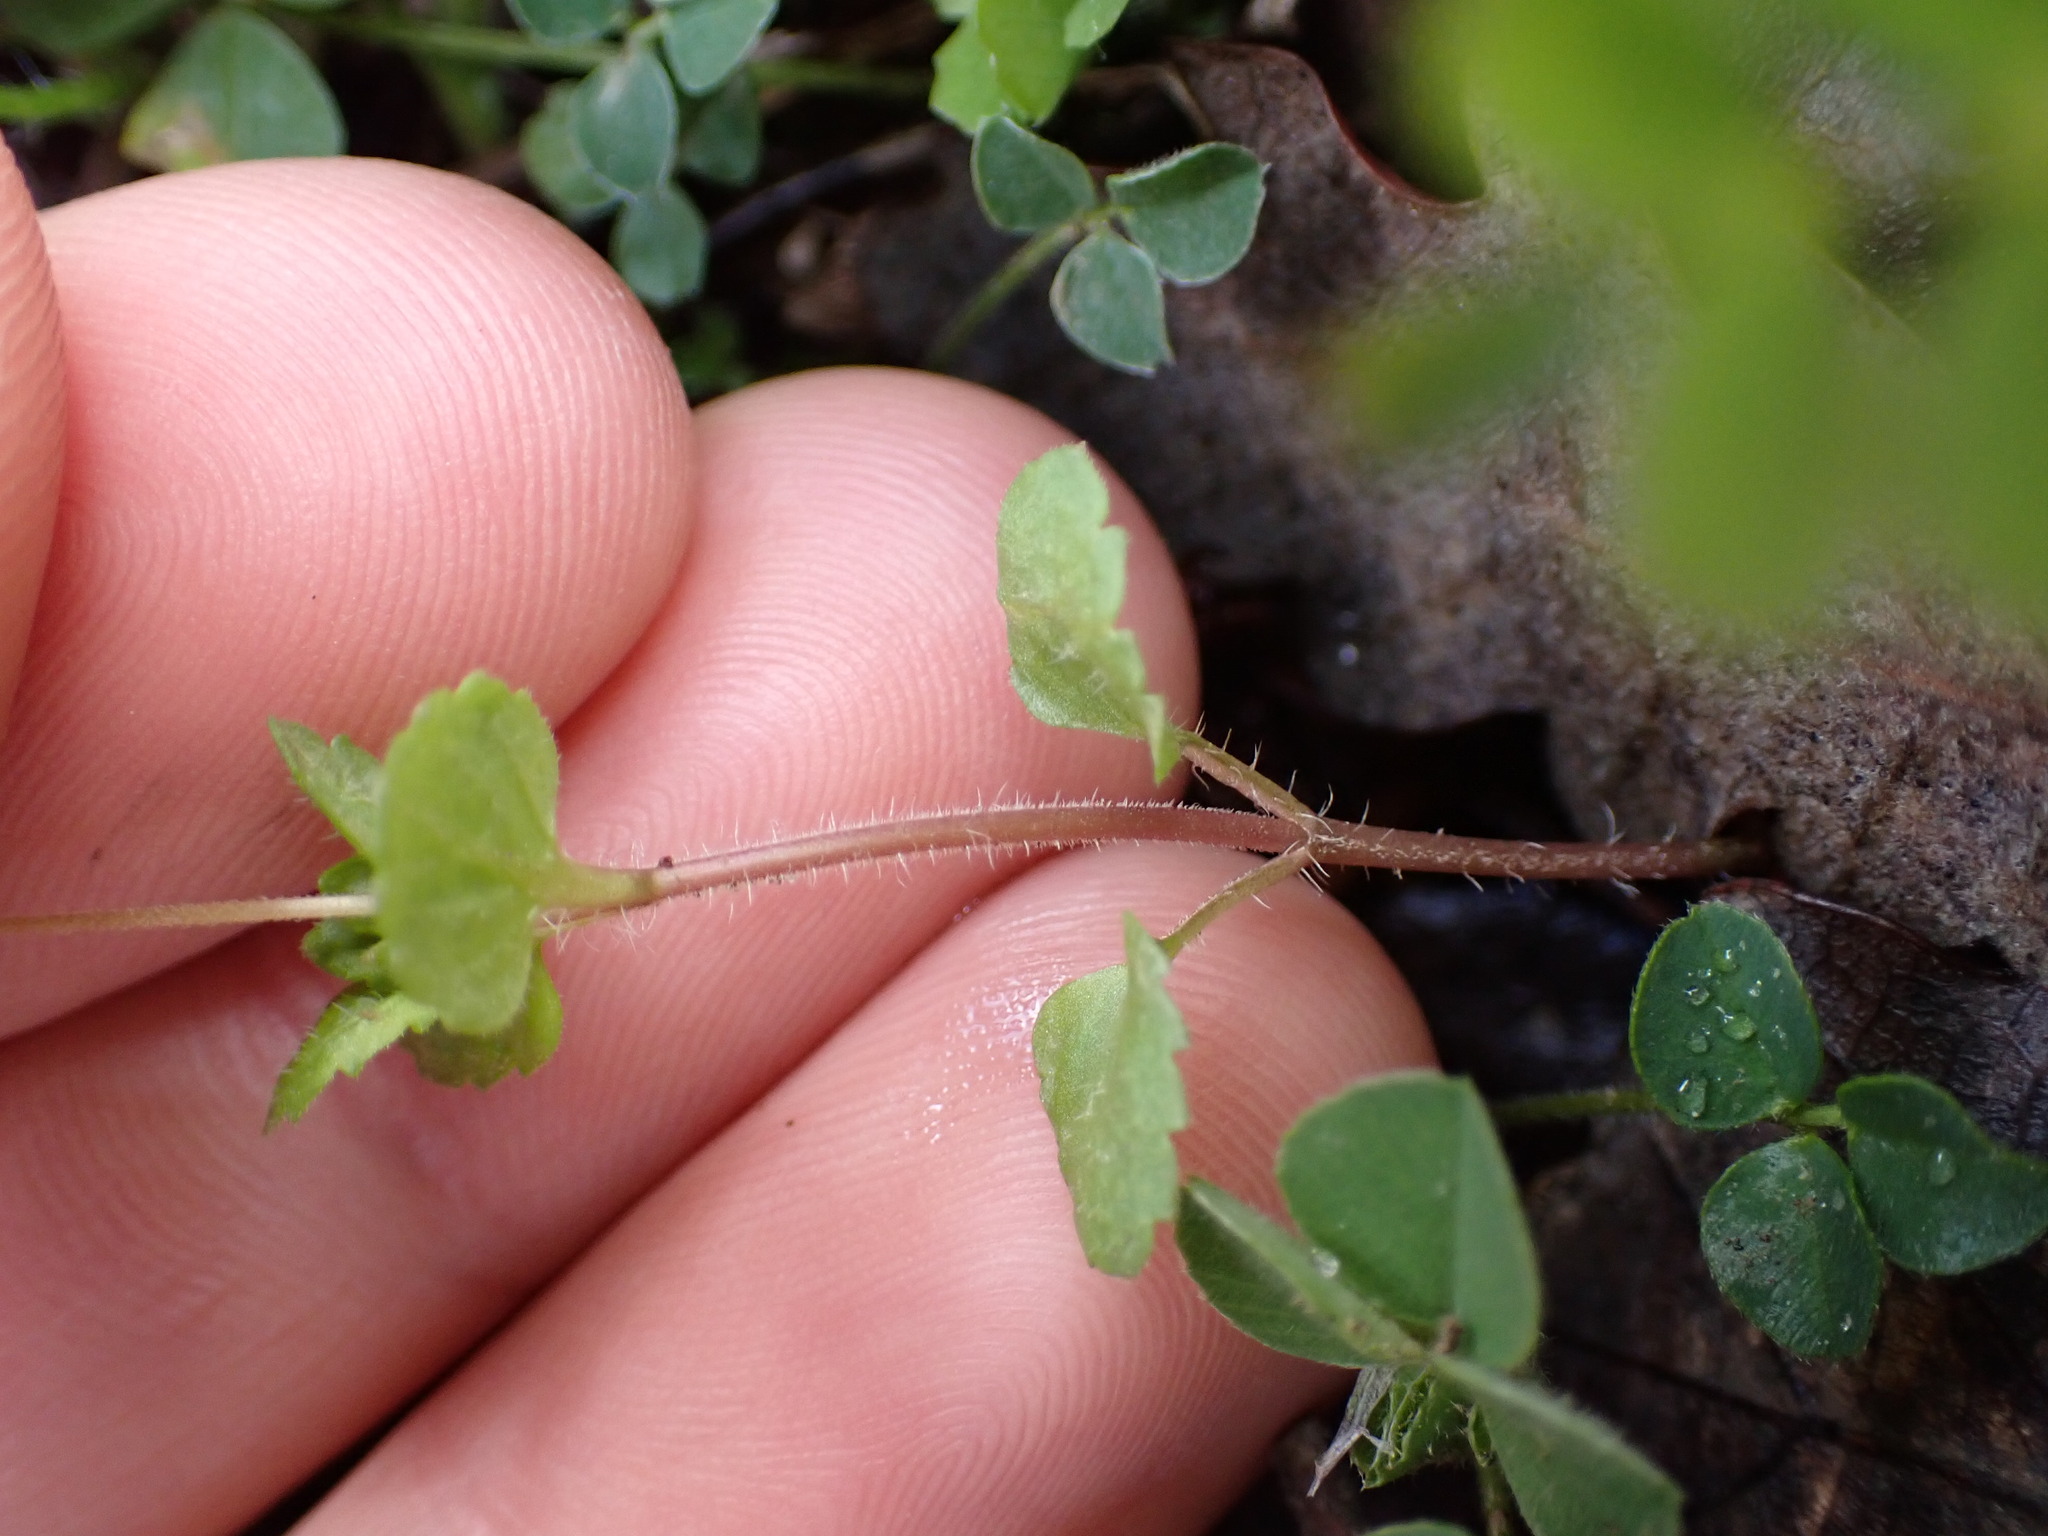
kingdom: Plantae
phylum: Tracheophyta
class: Magnoliopsida
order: Lamiales
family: Plantaginaceae
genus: Veronica
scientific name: Veronica persica
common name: Common field-speedwell
